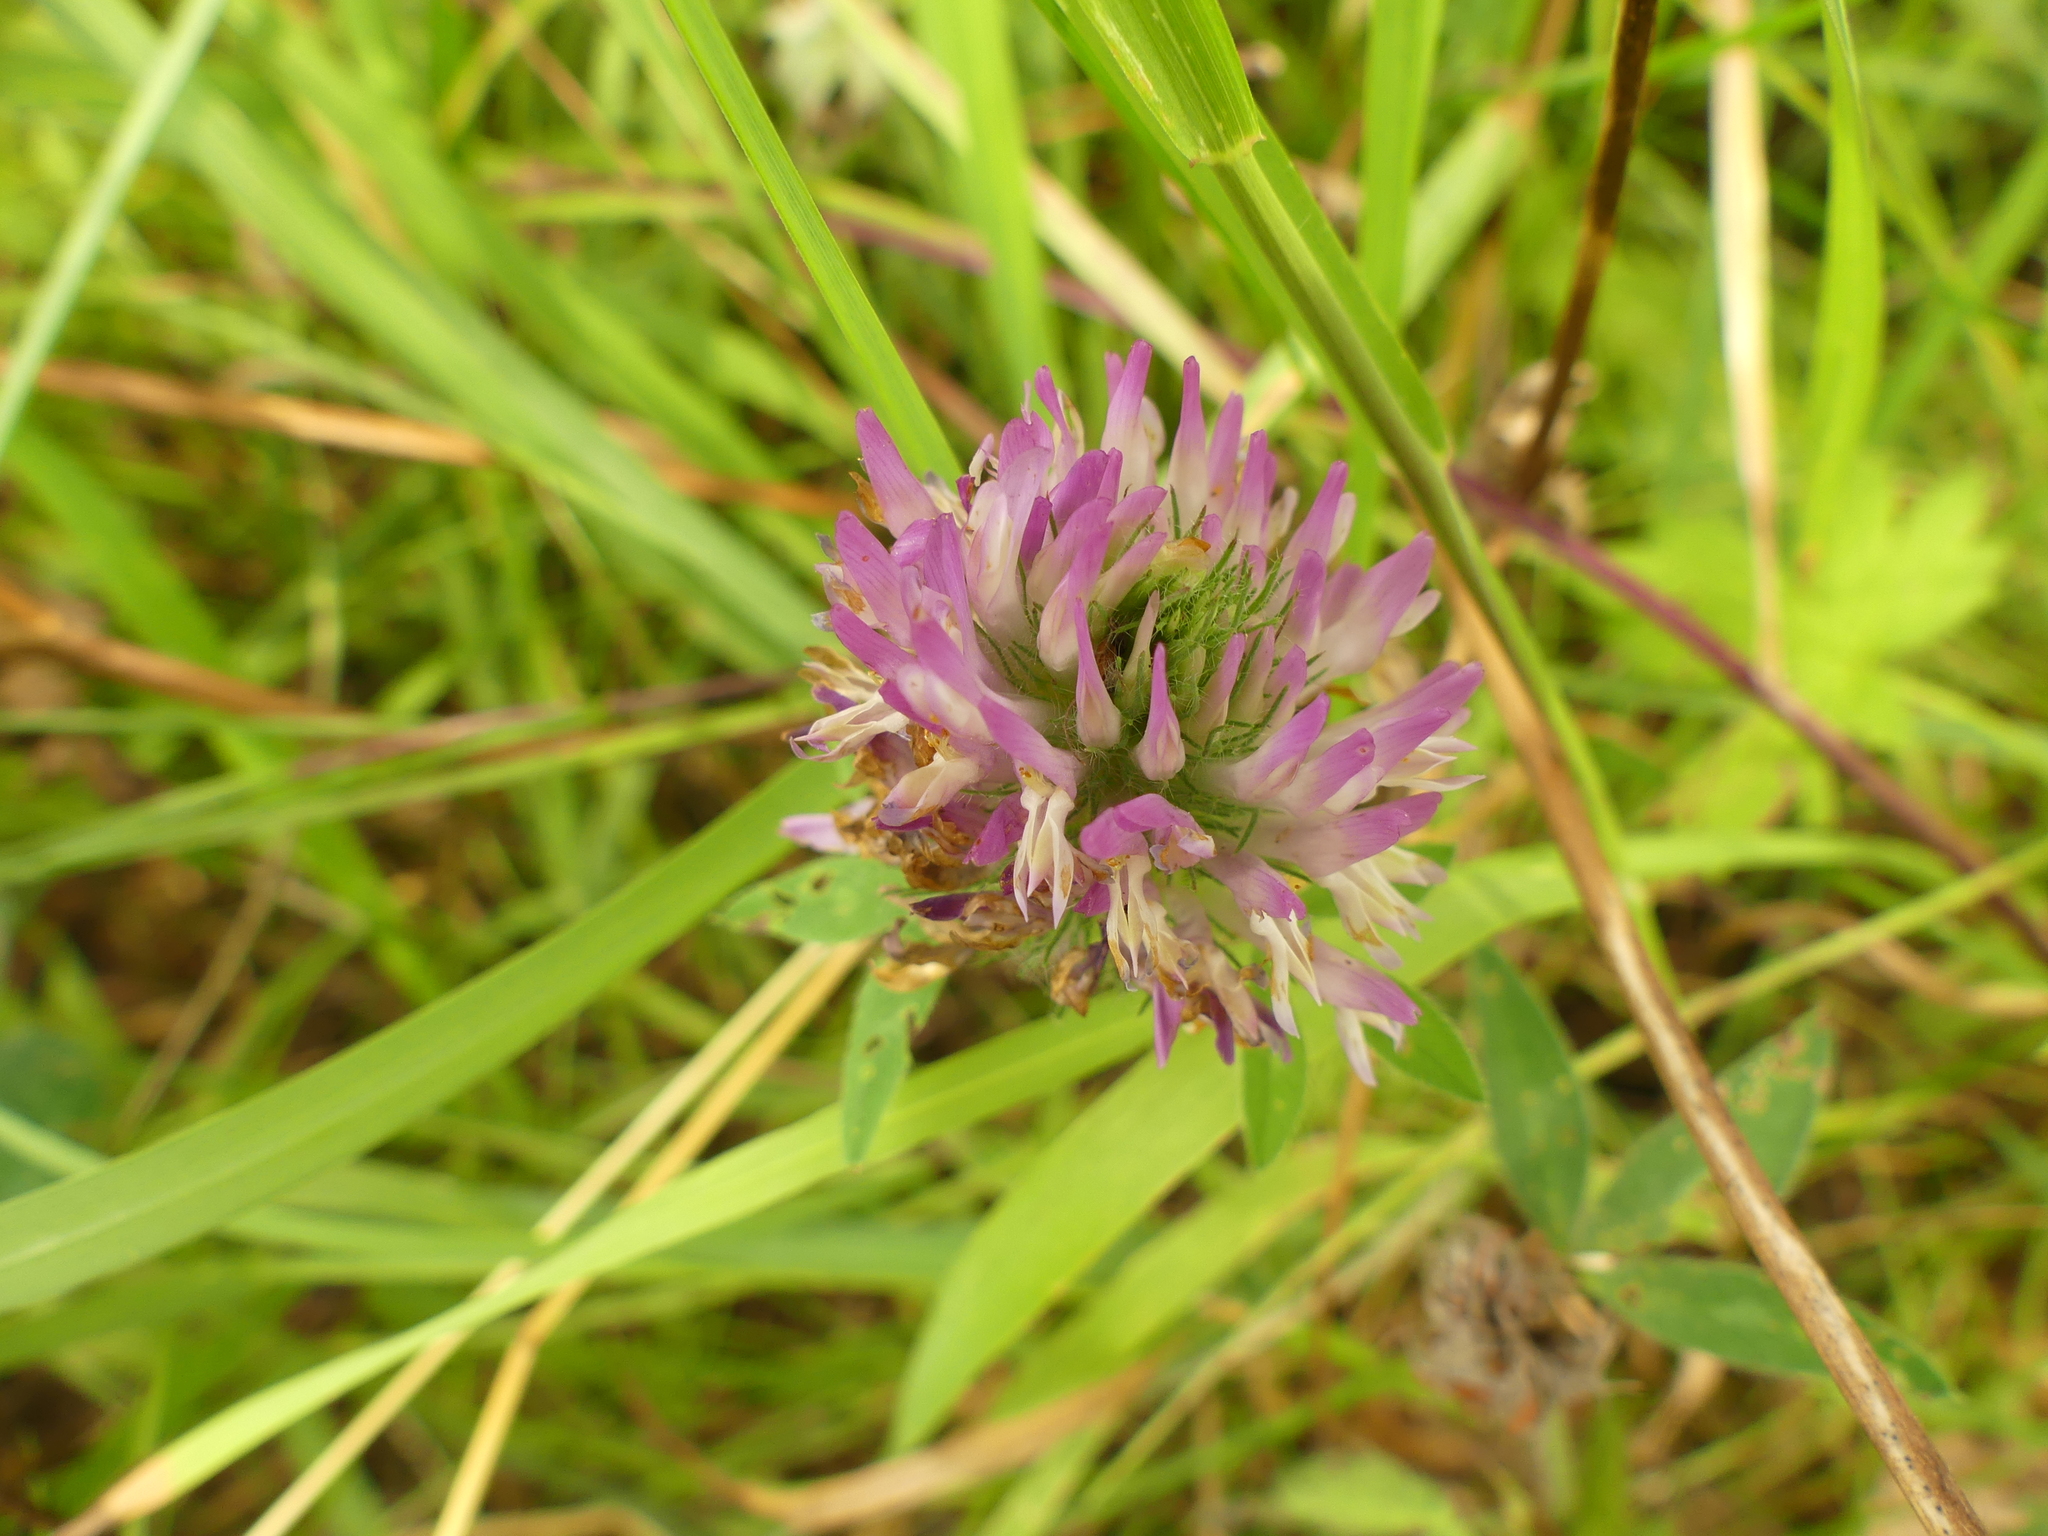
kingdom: Plantae
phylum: Tracheophyta
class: Magnoliopsida
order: Fabales
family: Fabaceae
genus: Trifolium
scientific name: Trifolium pratense
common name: Red clover
